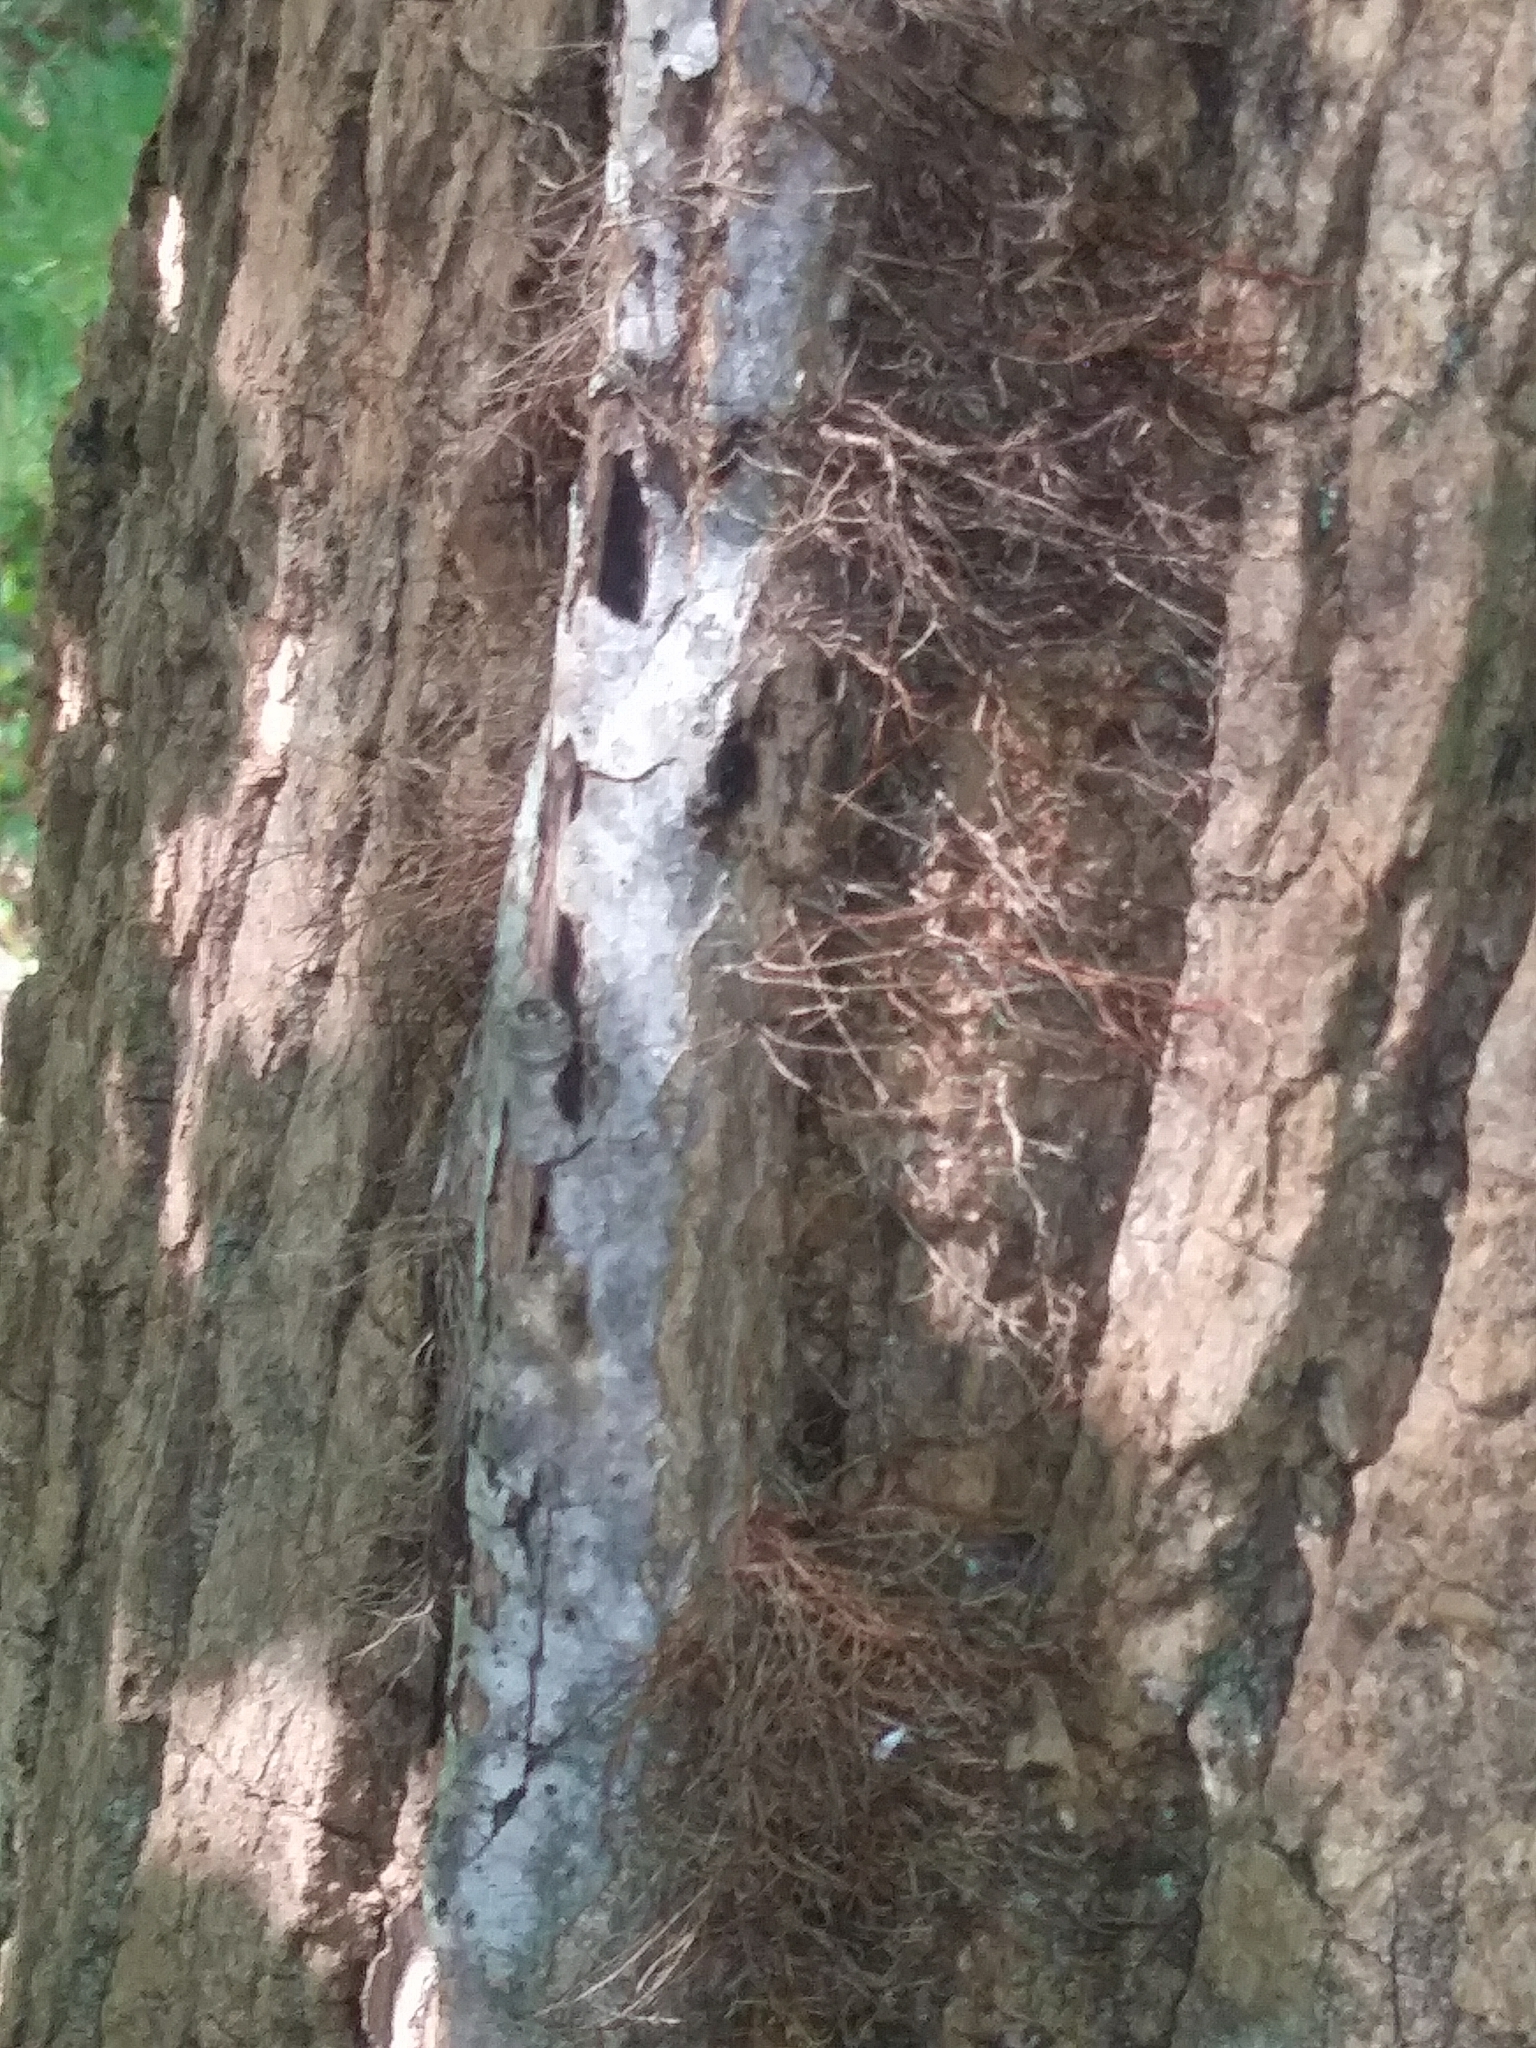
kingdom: Plantae
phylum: Tracheophyta
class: Magnoliopsida
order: Sapindales
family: Anacardiaceae
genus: Toxicodendron
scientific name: Toxicodendron radicans
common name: Poison ivy
